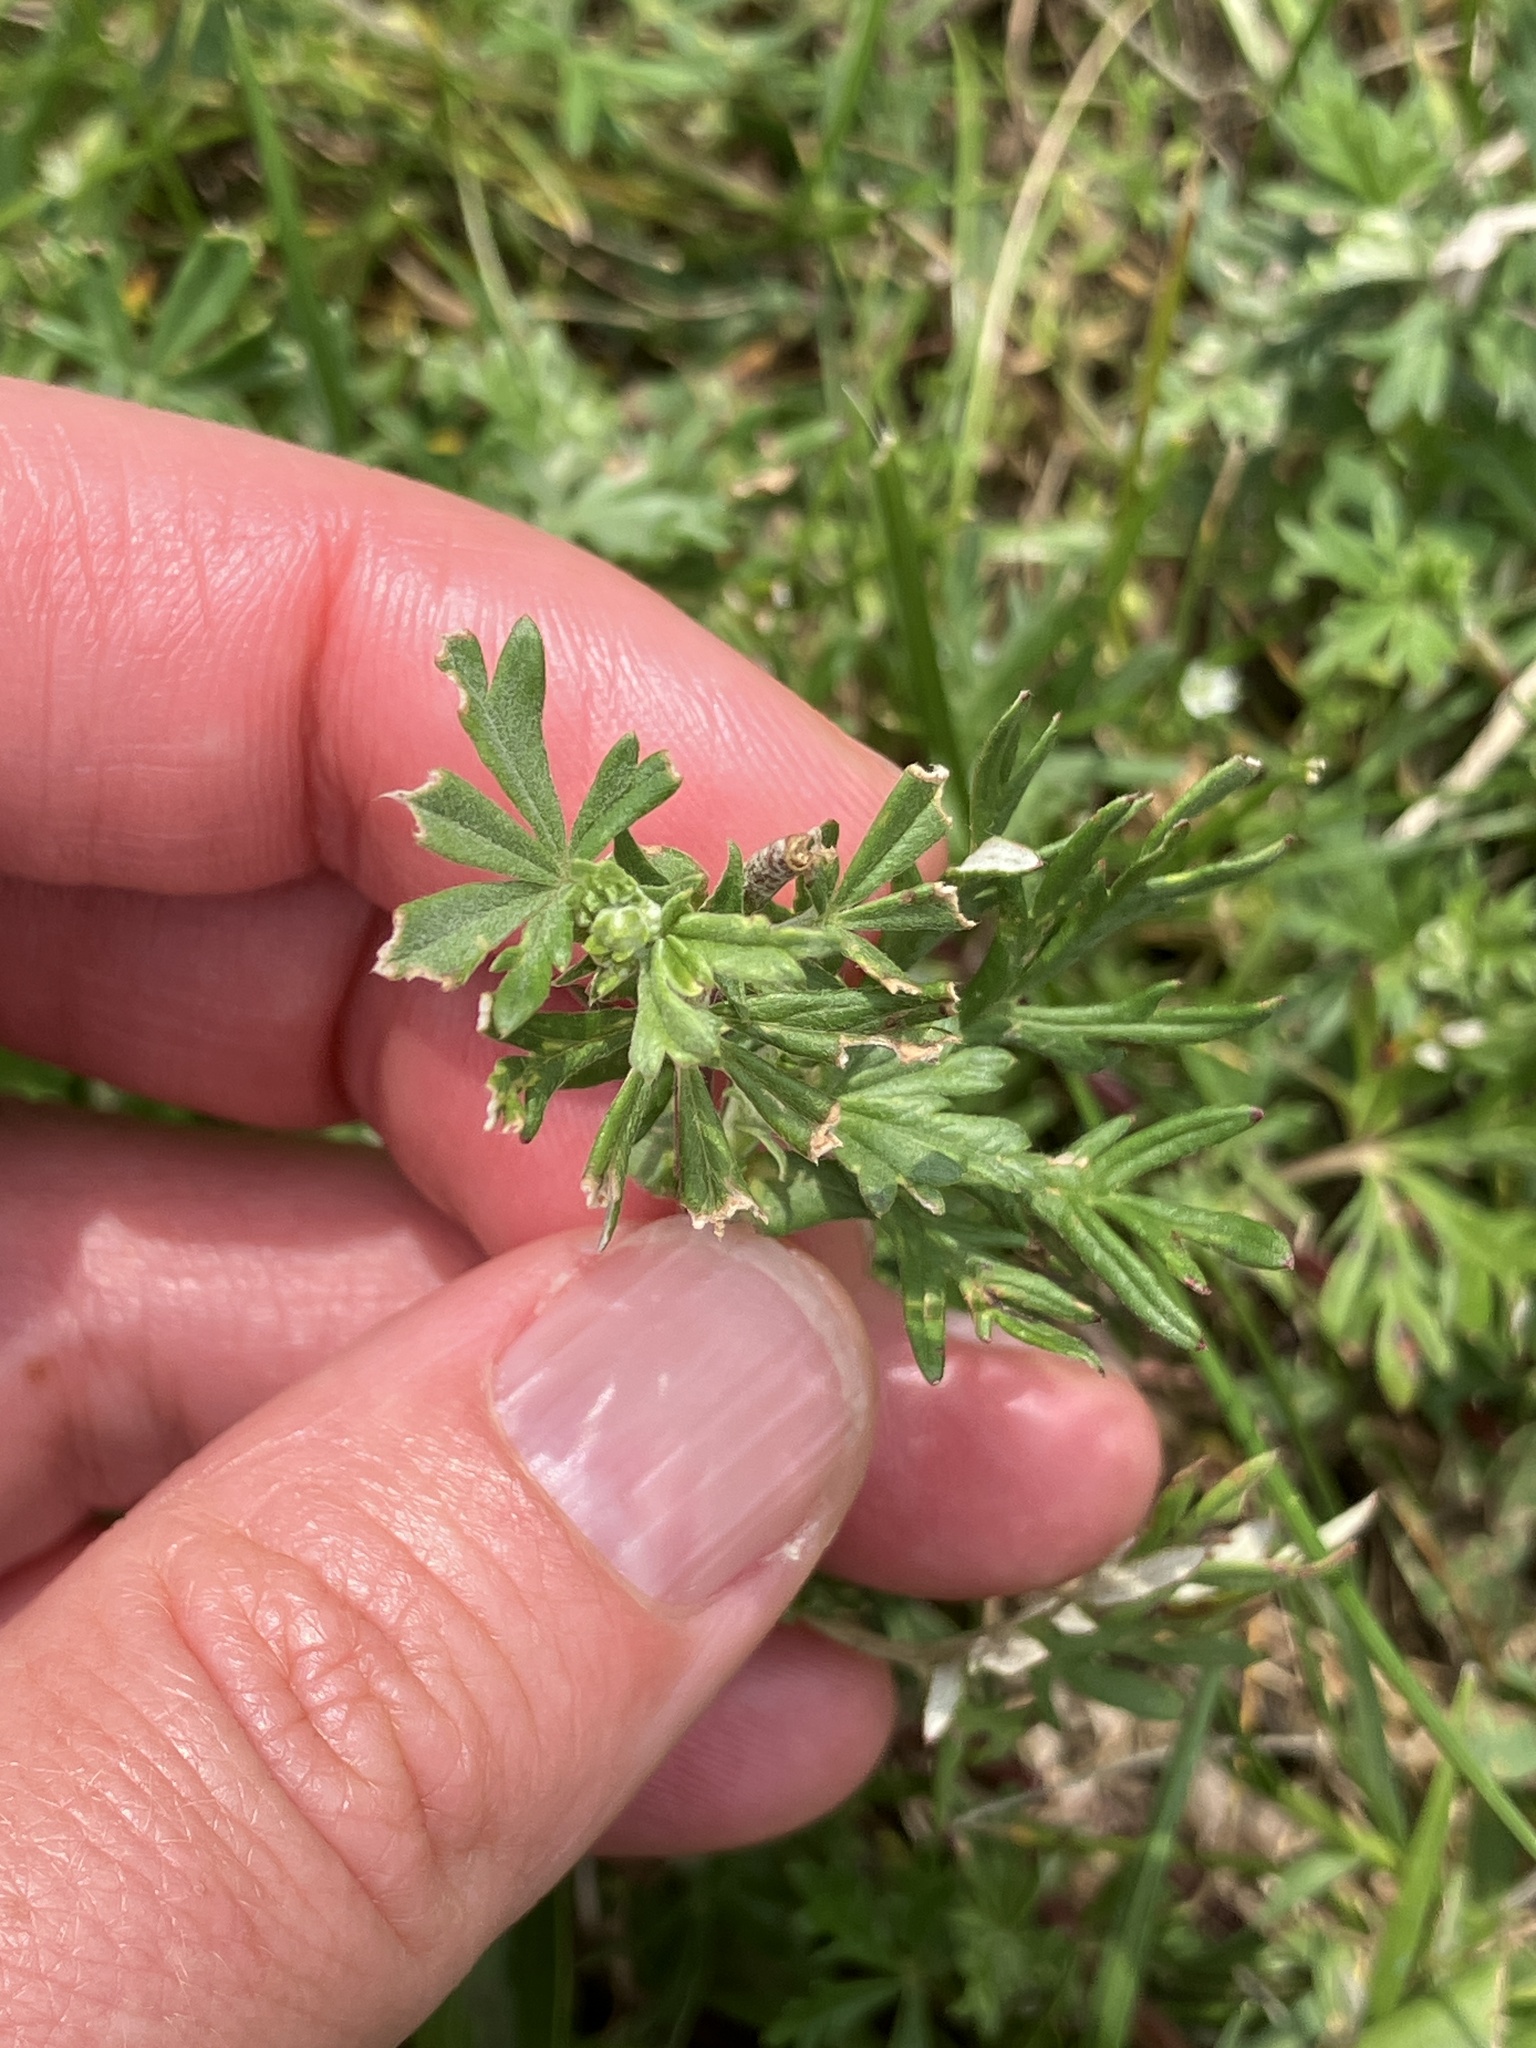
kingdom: Plantae
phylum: Tracheophyta
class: Magnoliopsida
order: Rosales
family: Rosaceae
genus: Potentilla
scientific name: Potentilla argentea
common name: Hoary cinquefoil
